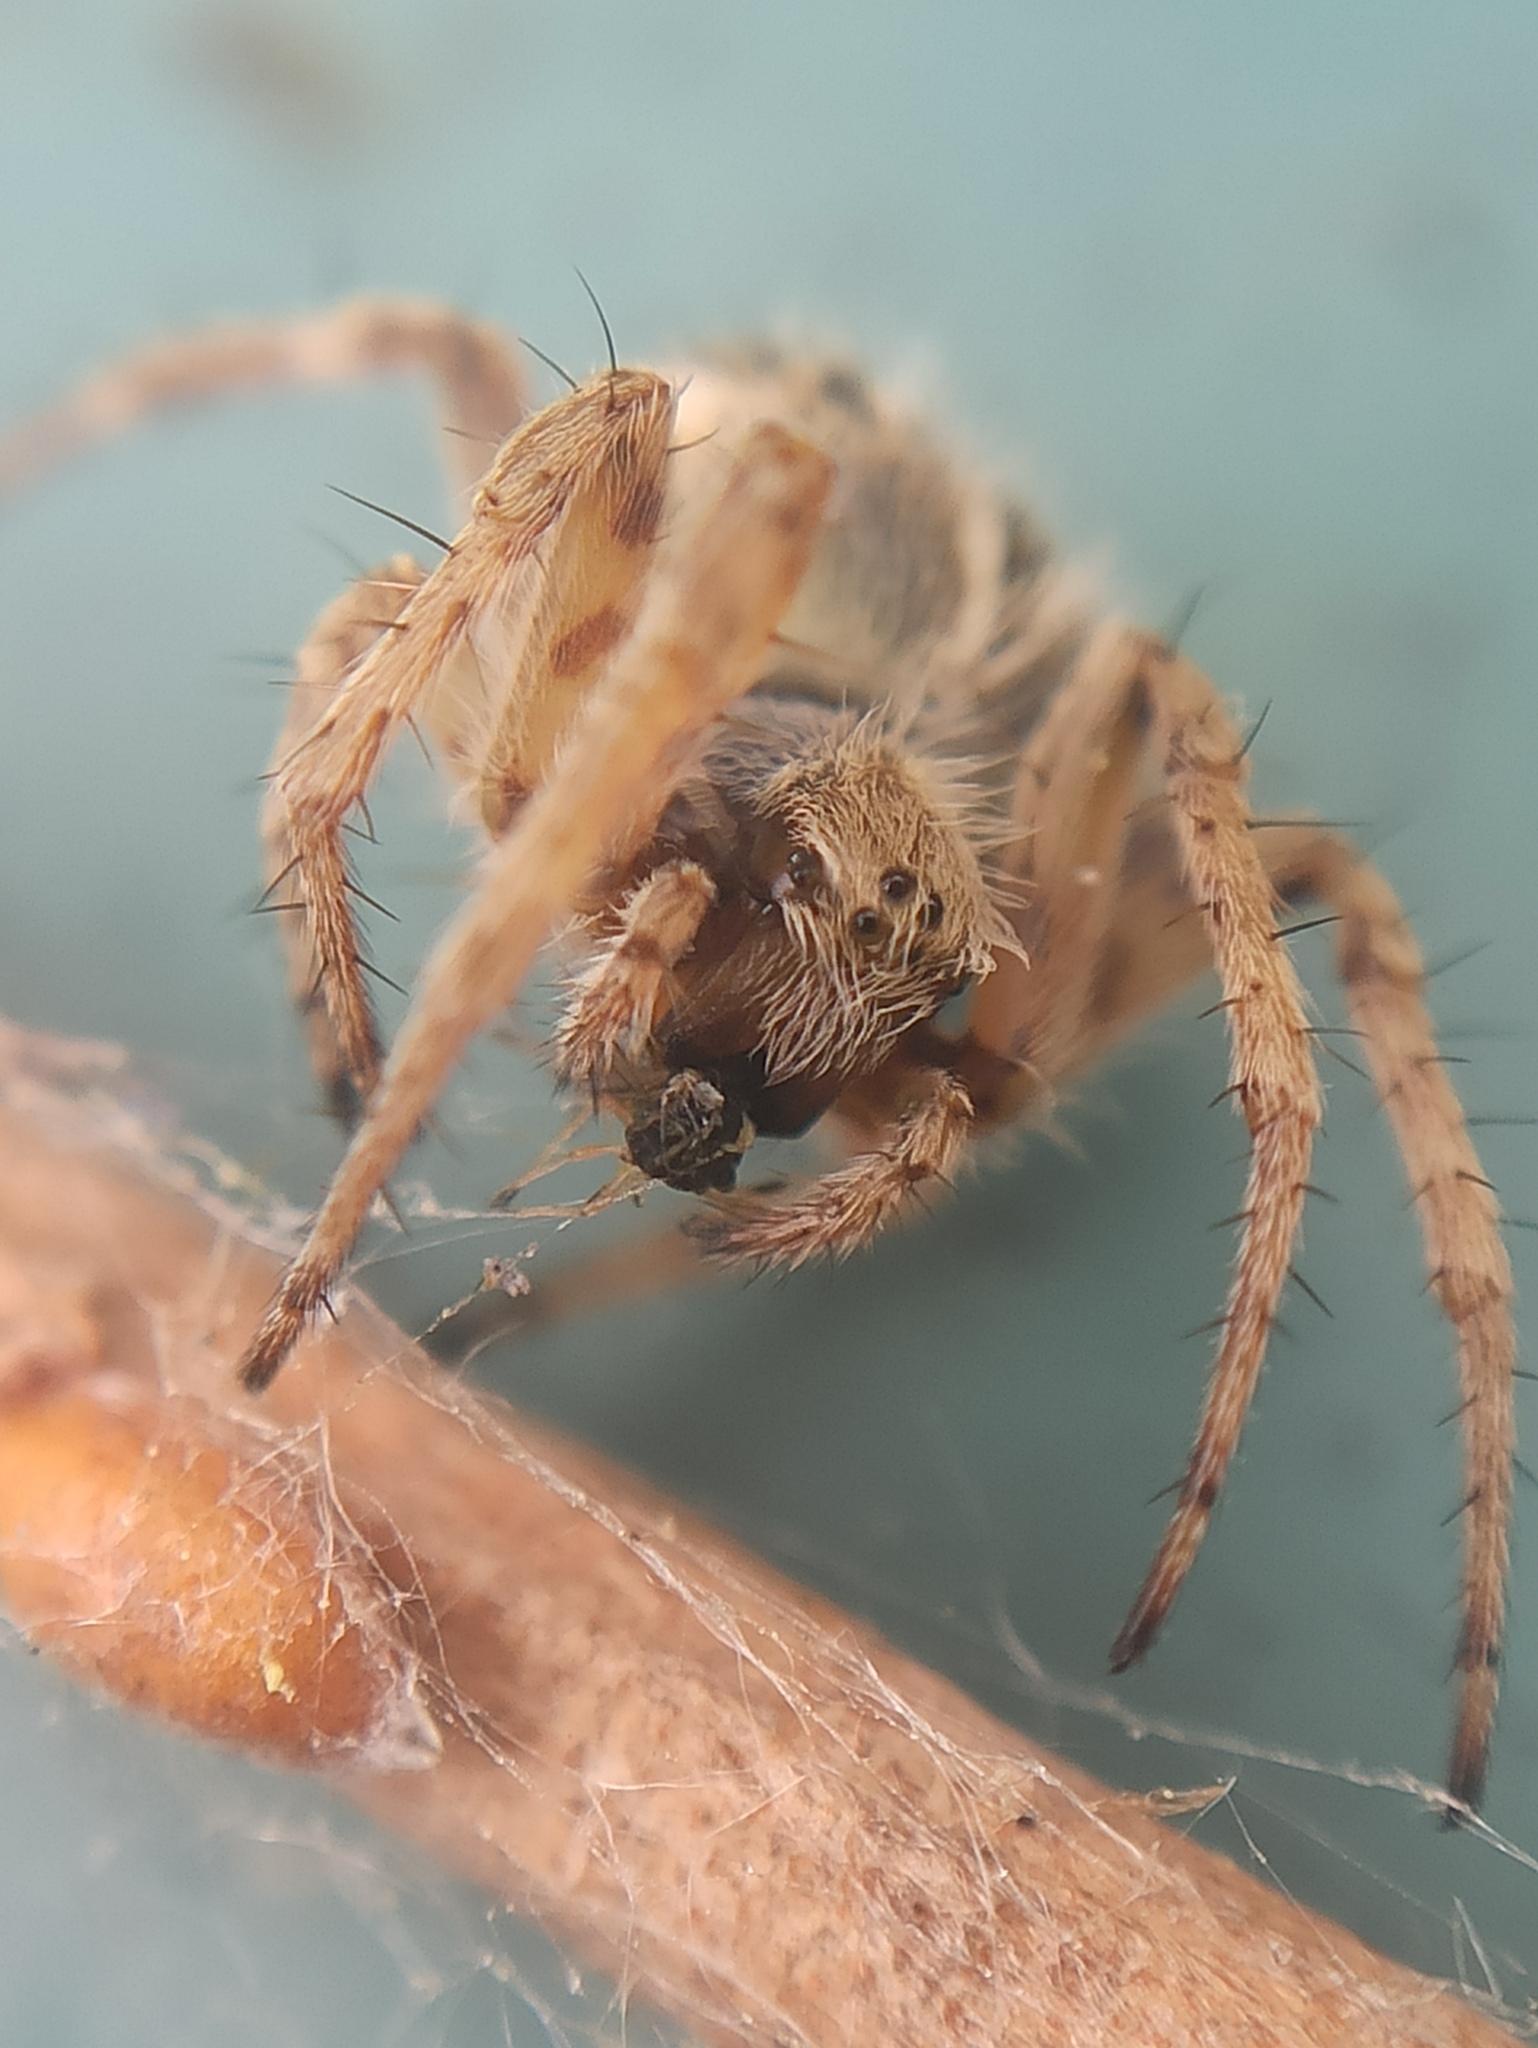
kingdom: Animalia
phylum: Arthropoda
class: Arachnida
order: Araneae
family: Araneidae
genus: Agalenatea
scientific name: Agalenatea redii
